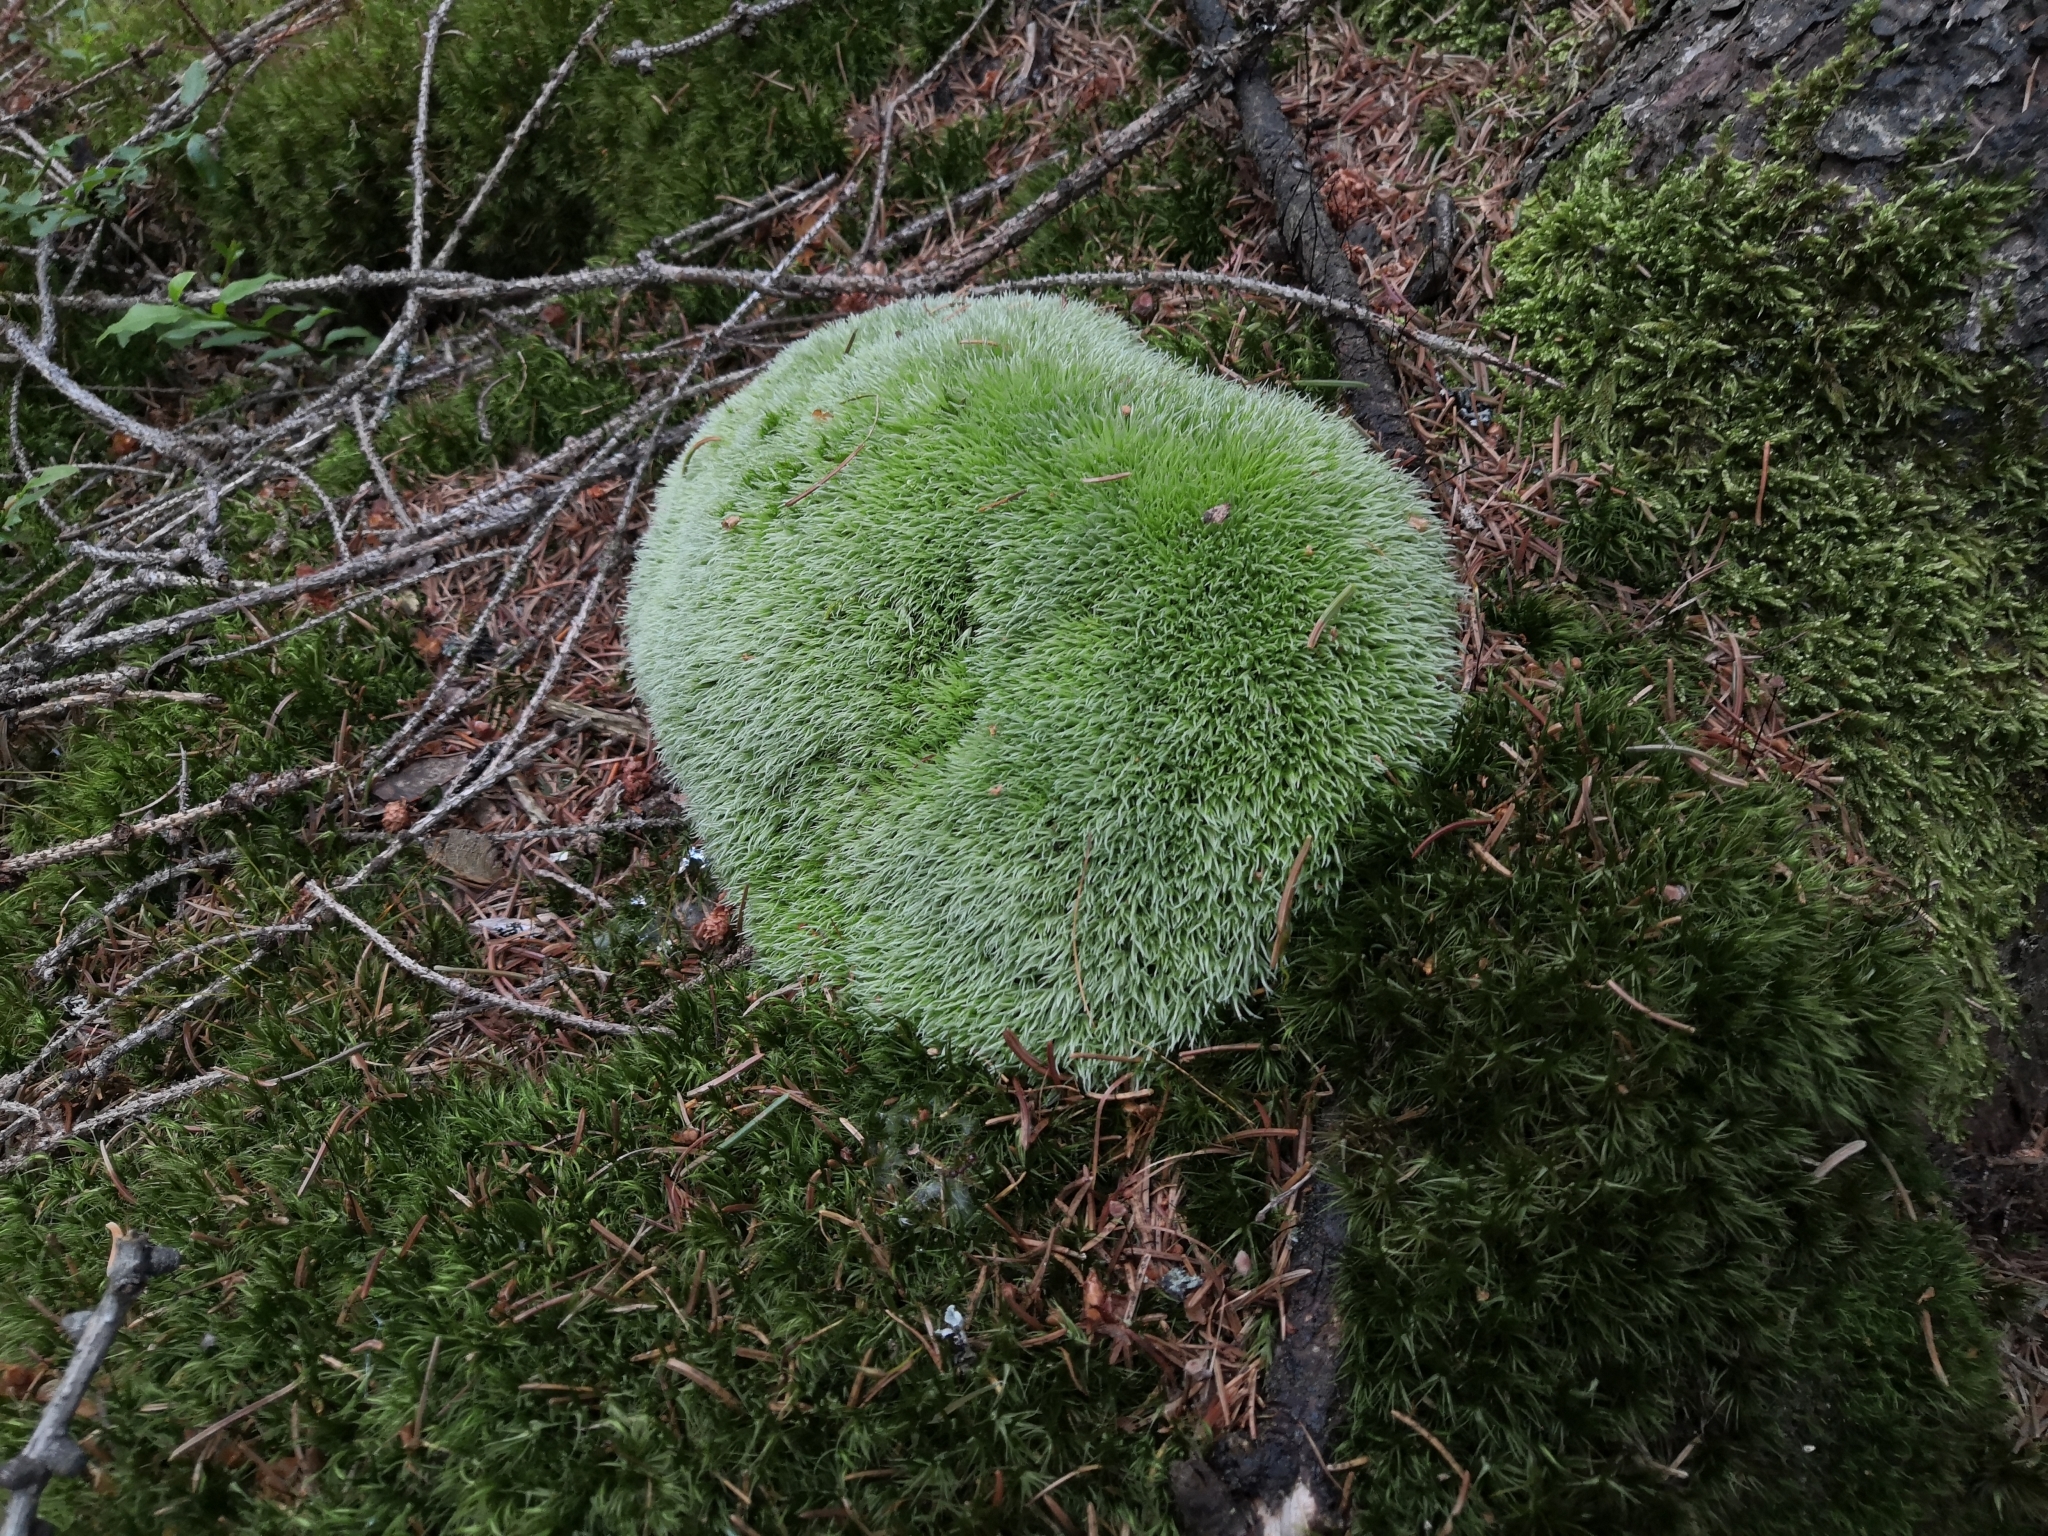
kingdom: Plantae
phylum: Bryophyta
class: Bryopsida
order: Dicranales
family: Leucobryaceae
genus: Leucobryum
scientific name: Leucobryum glaucum
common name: Large white-moss
